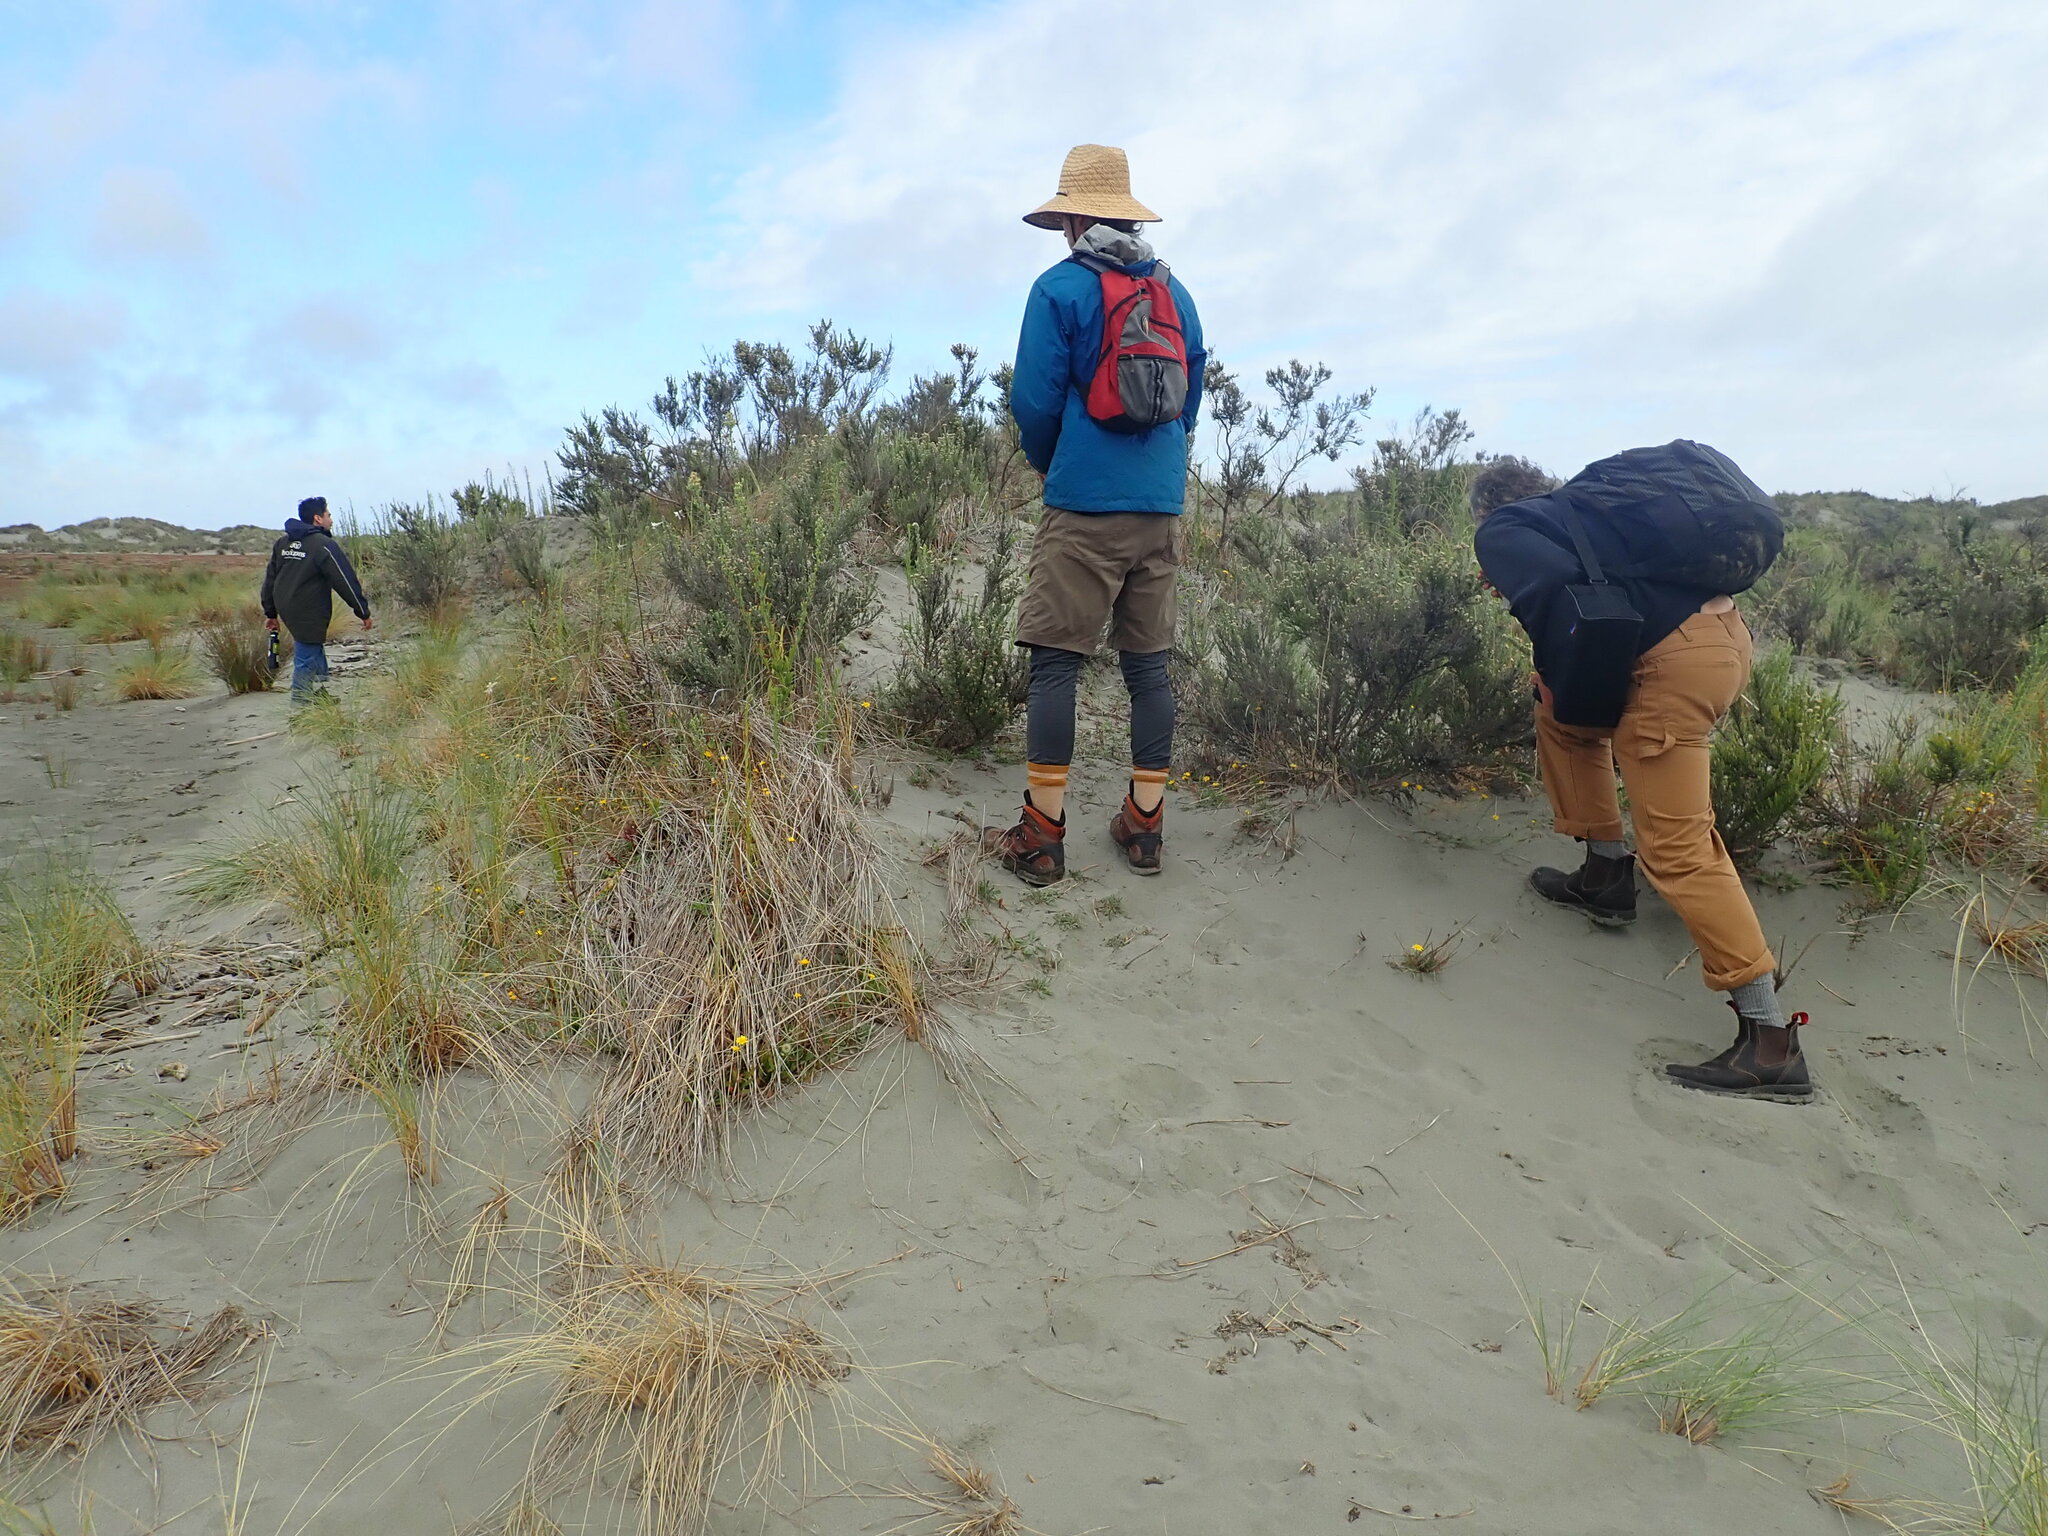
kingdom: Plantae
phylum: Tracheophyta
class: Magnoliopsida
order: Asterales
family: Asteraceae
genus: Ozothamnus
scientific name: Ozothamnus leptophyllus
